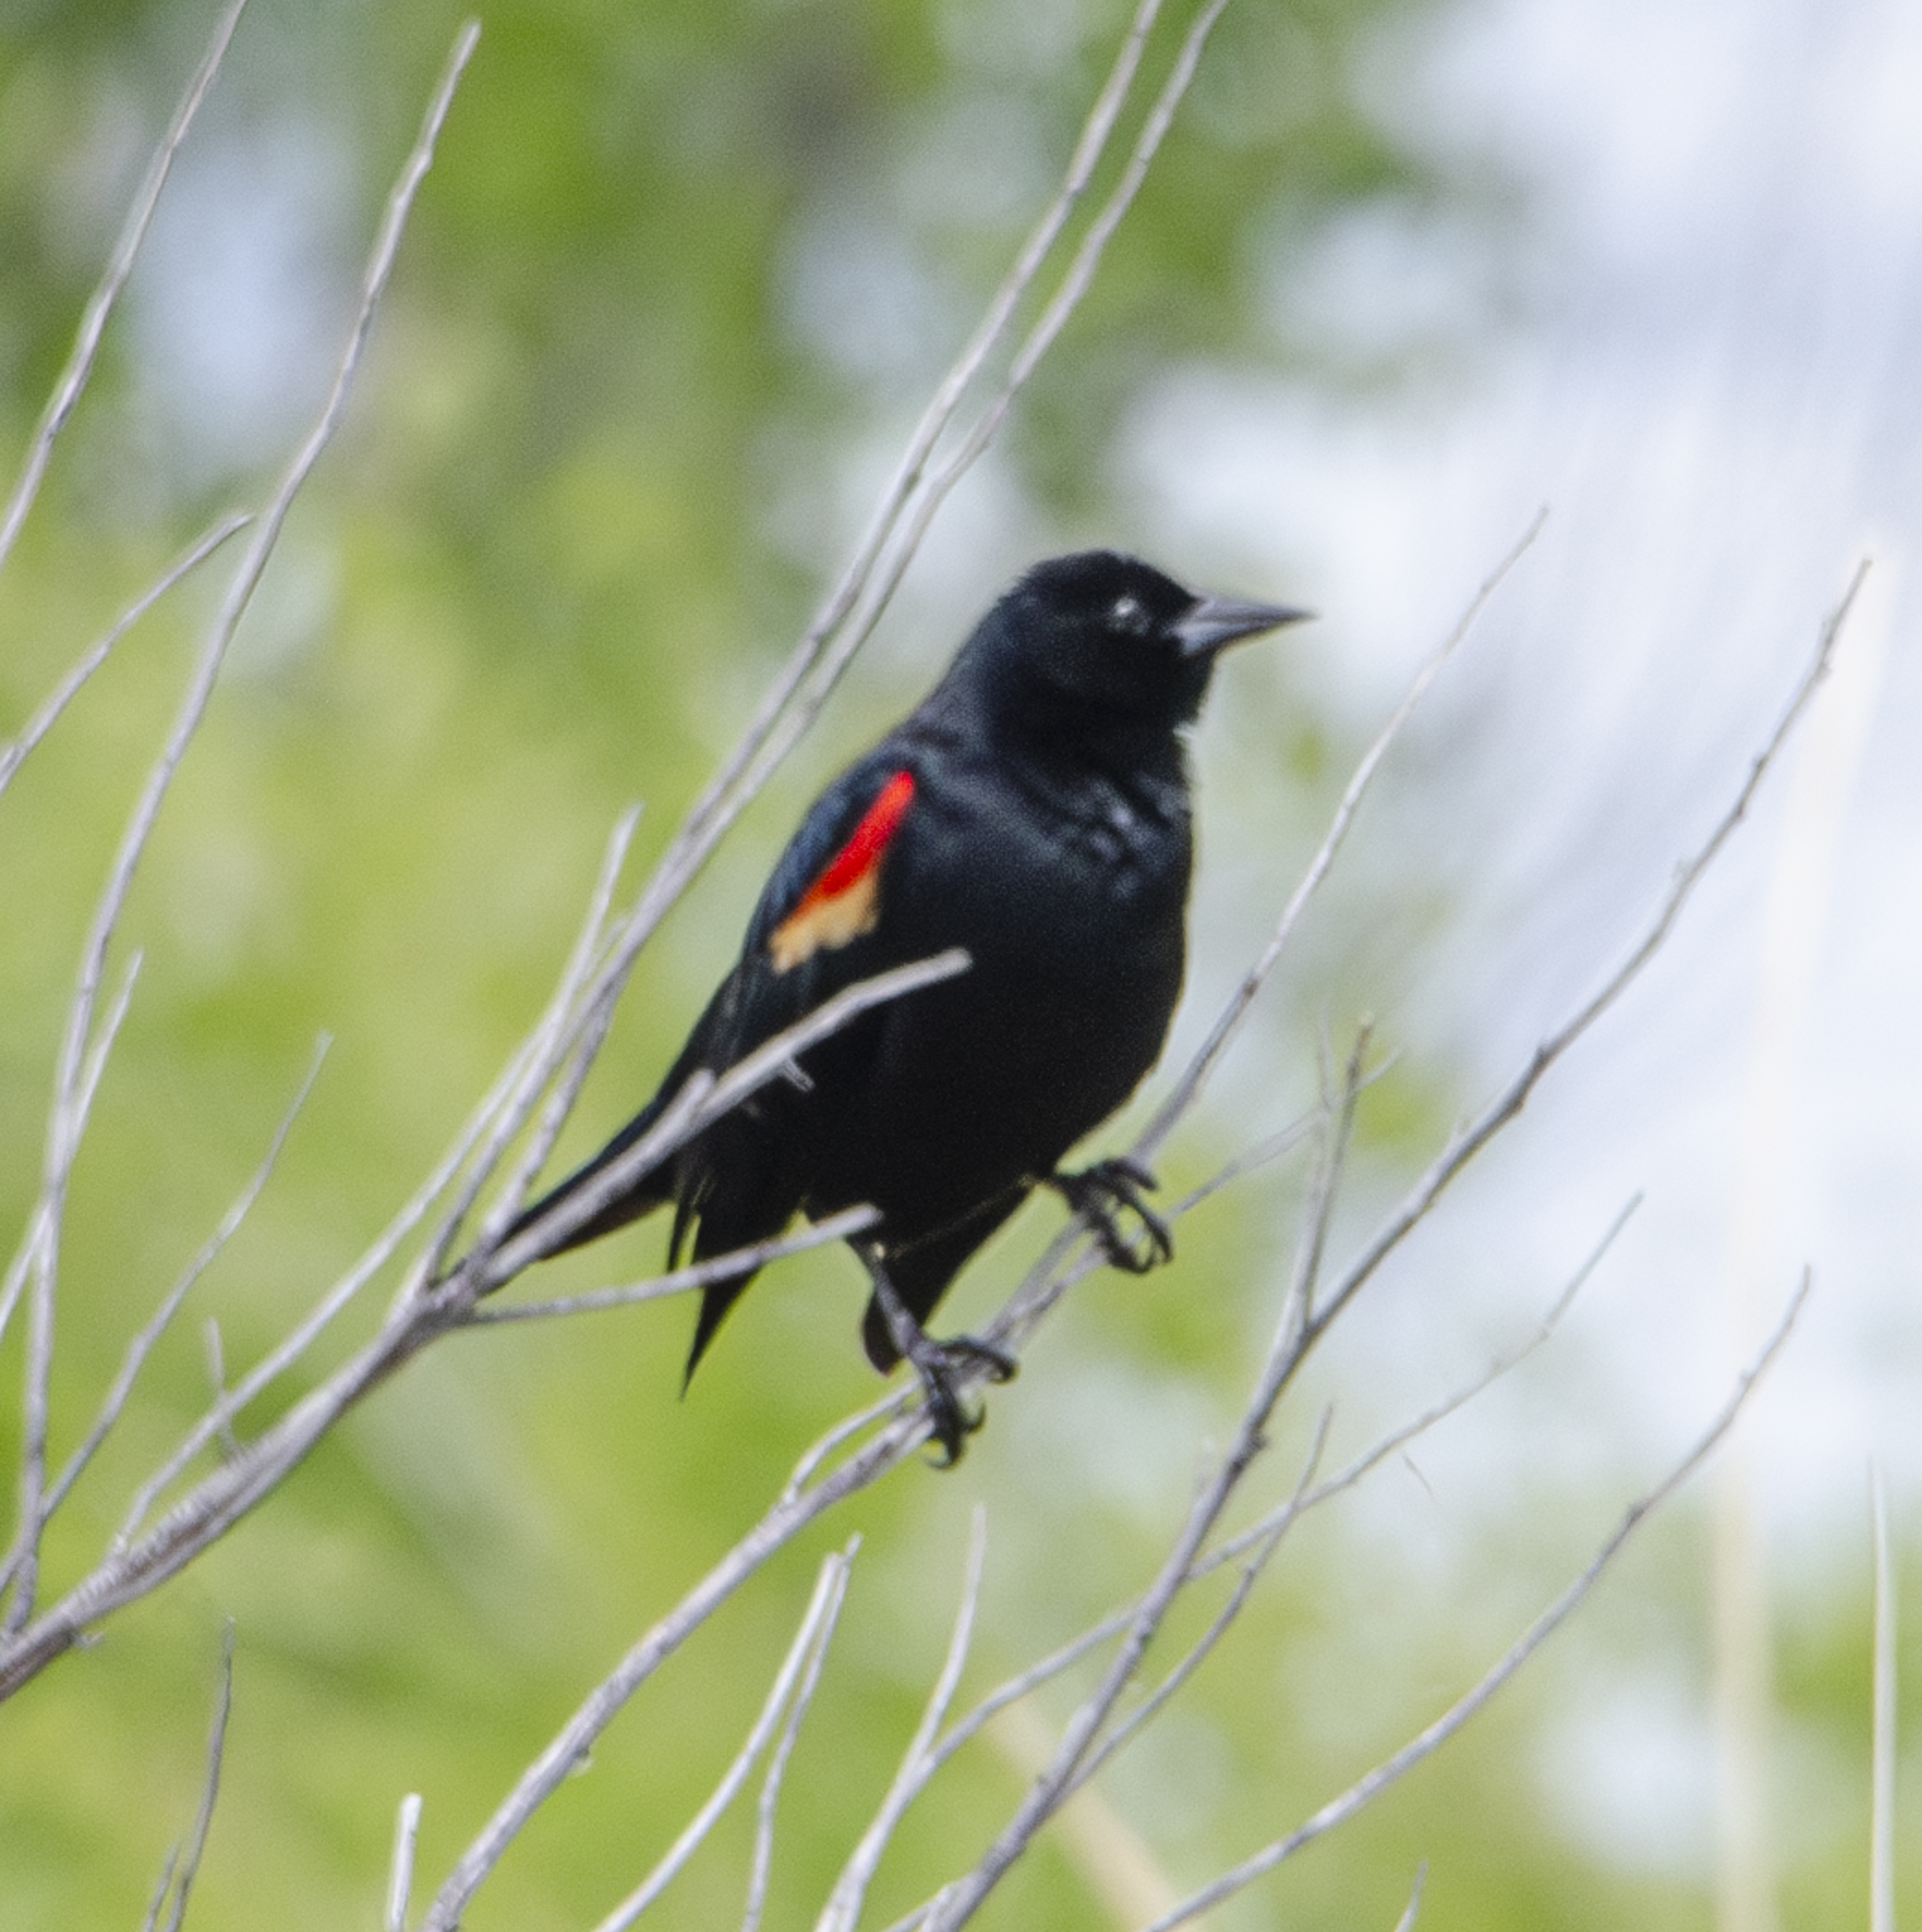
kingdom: Animalia
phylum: Chordata
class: Aves
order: Passeriformes
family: Icteridae
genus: Agelaius
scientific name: Agelaius phoeniceus
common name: Red-winged blackbird
